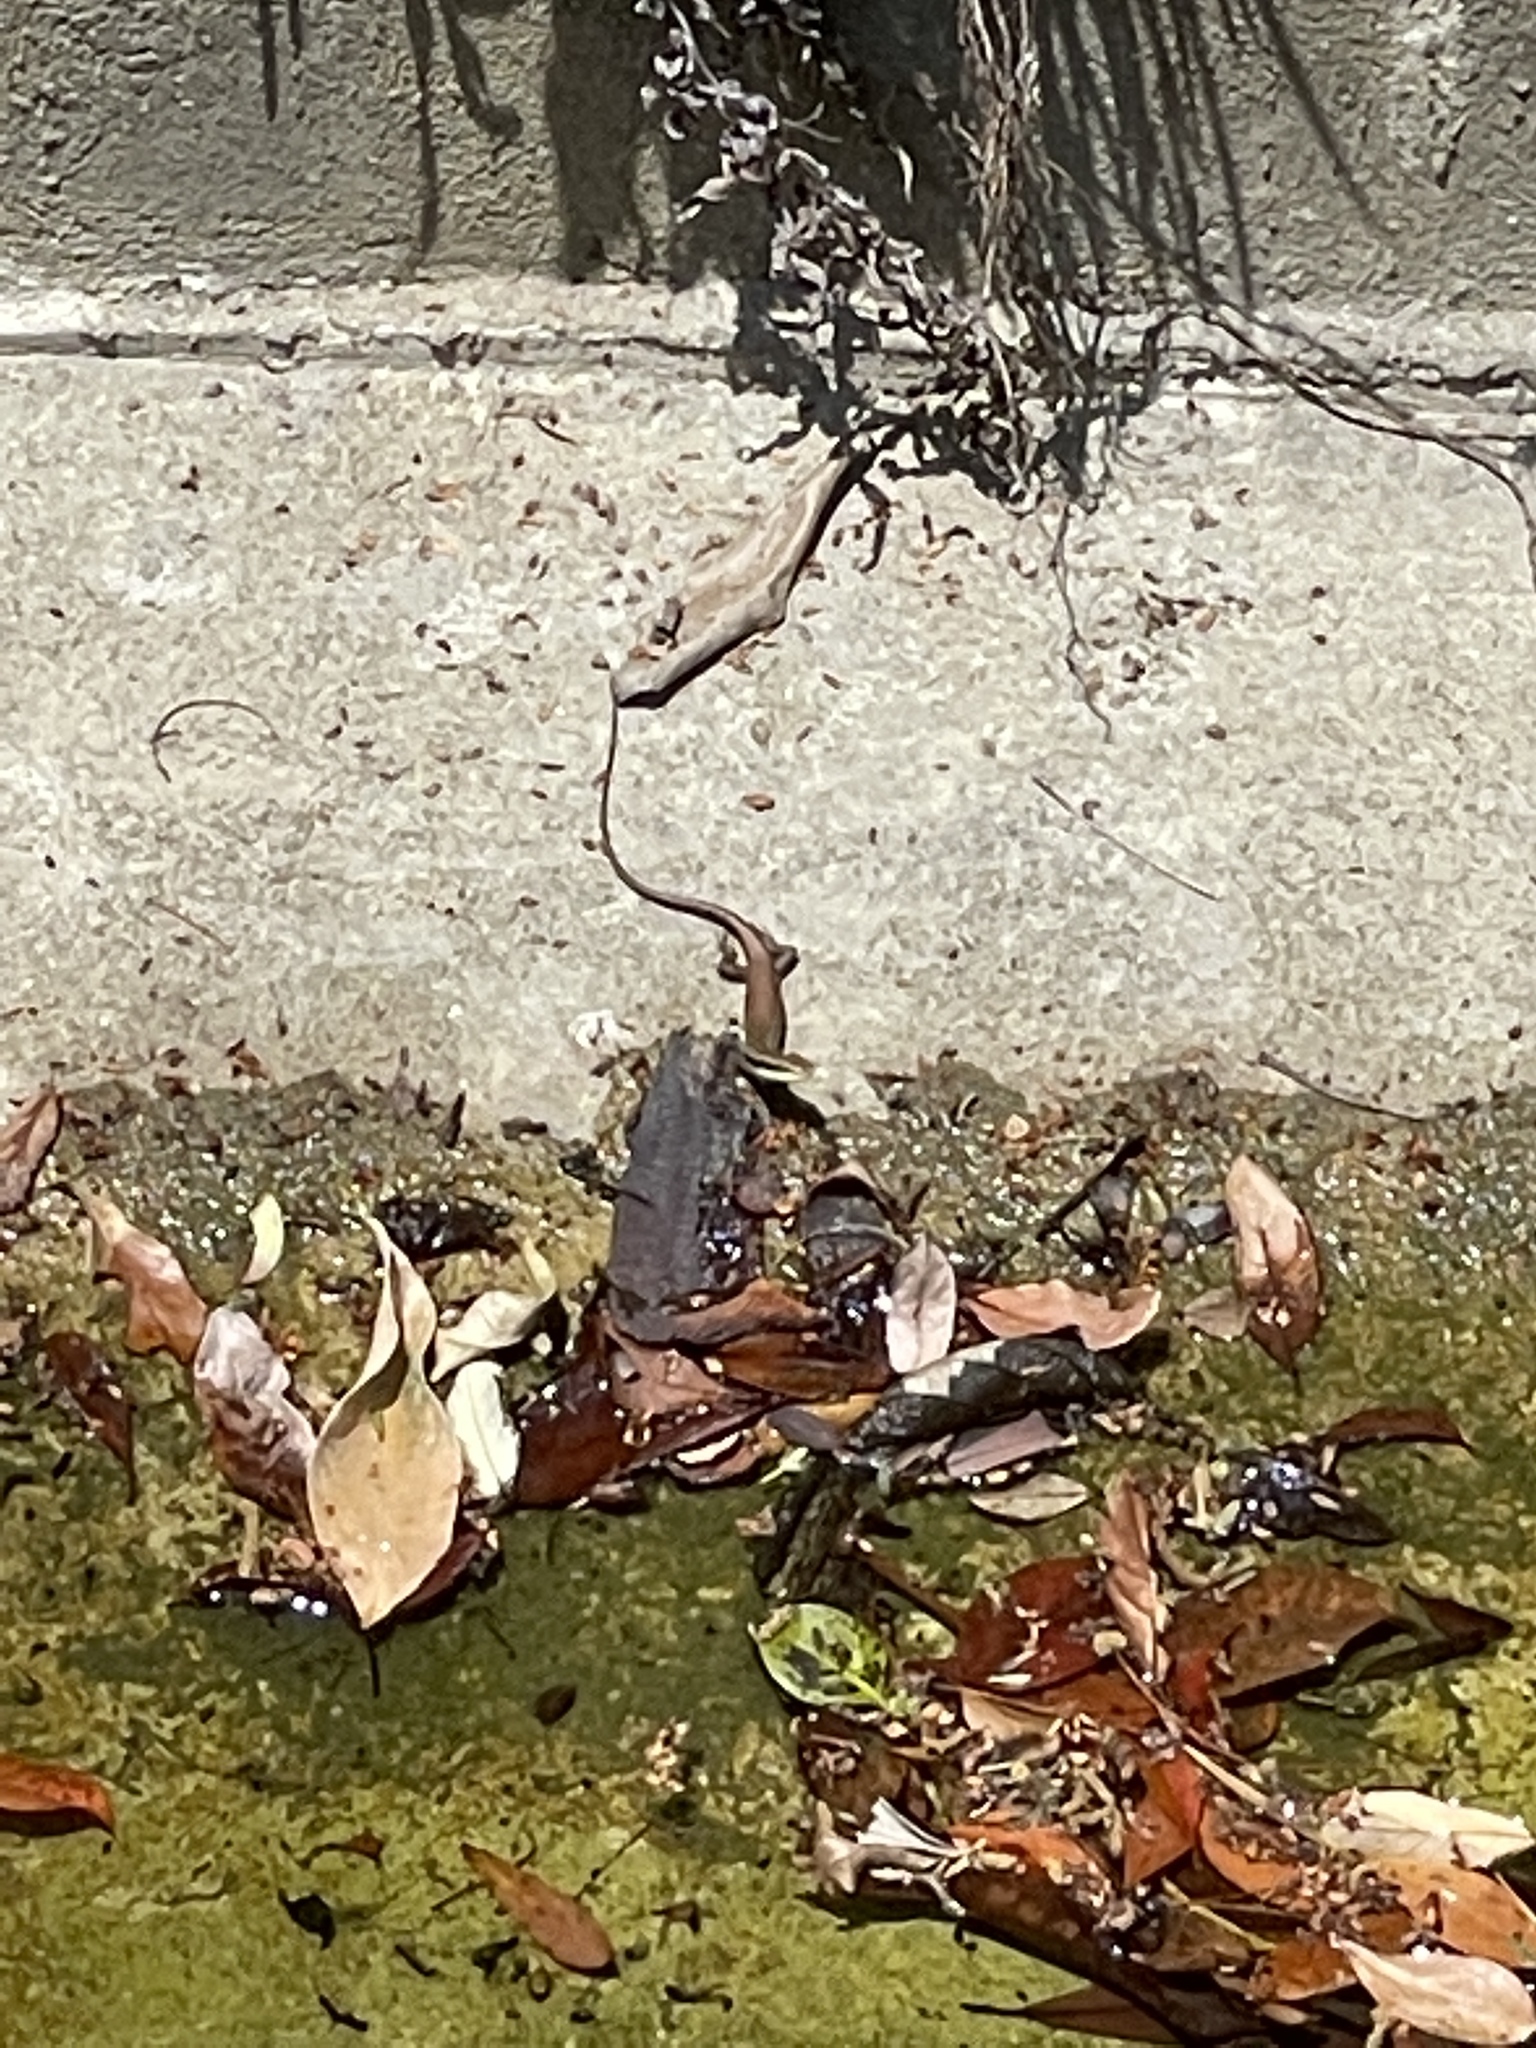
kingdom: Animalia
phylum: Chordata
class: Squamata
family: Scincidae
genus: Eutropis
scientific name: Eutropis longicaudata
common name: Long-tailed sun skink
